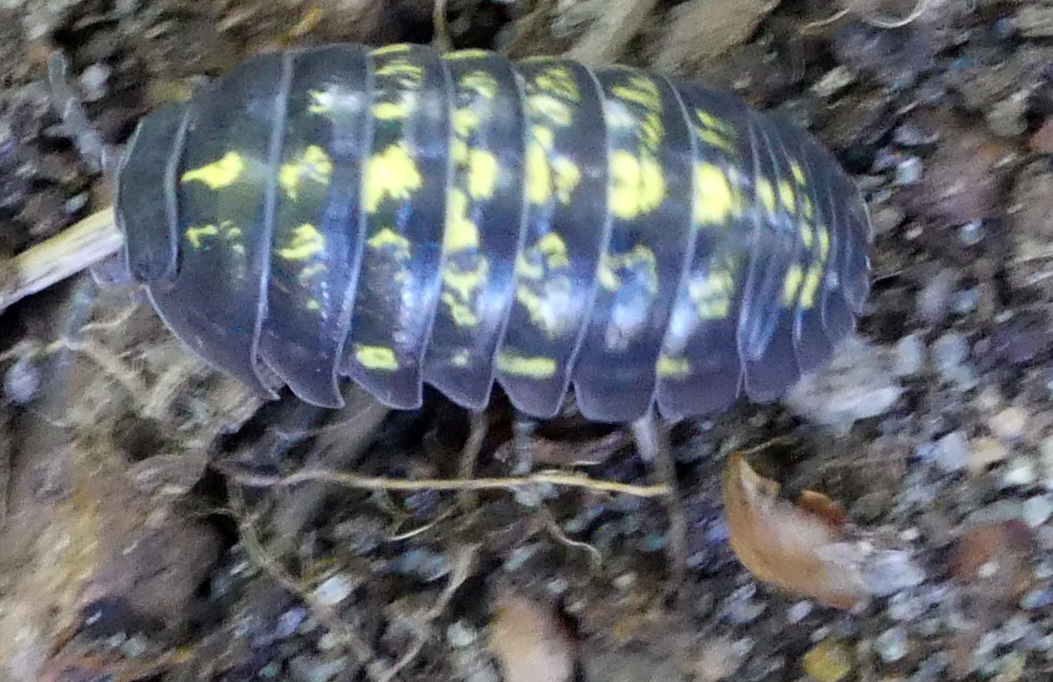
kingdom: Animalia
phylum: Arthropoda
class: Malacostraca
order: Isopoda
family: Armadillidiidae
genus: Armadillidium
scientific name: Armadillidium vulgare
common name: Common pill woodlouse
